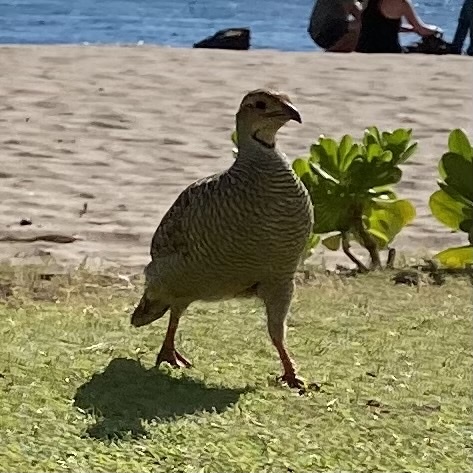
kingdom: Animalia
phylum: Chordata
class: Aves
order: Galliformes
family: Phasianidae
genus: Ortygornis
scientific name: Ortygornis pondicerianus
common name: Grey francolin
